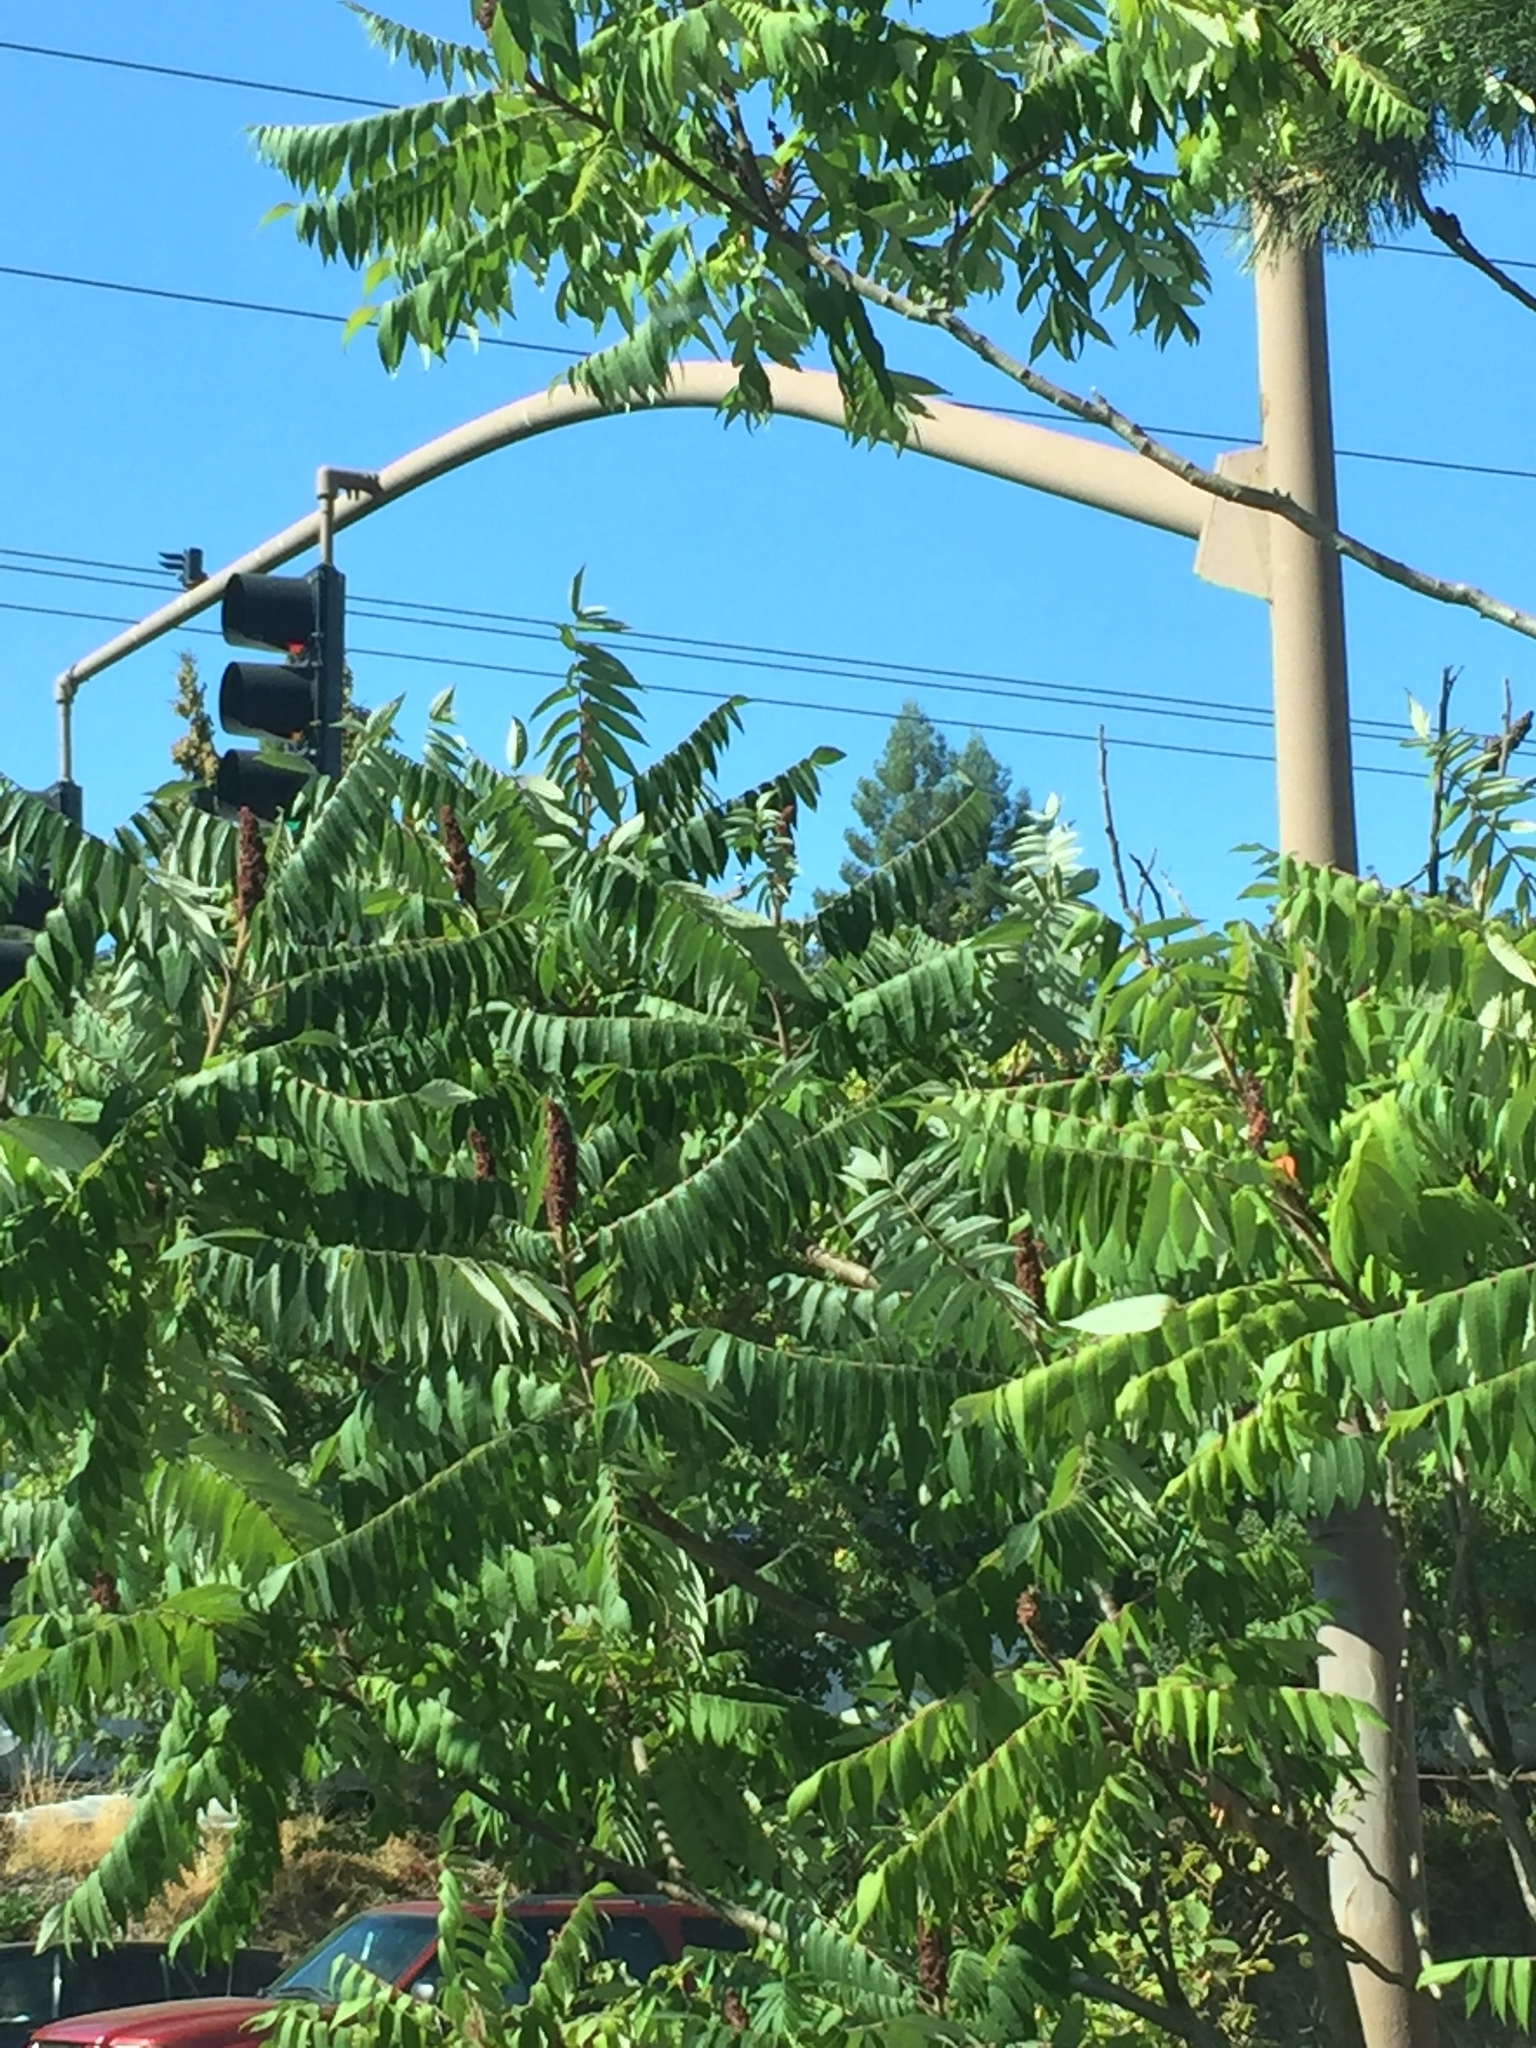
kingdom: Plantae
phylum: Tracheophyta
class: Magnoliopsida
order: Sapindales
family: Anacardiaceae
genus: Rhus
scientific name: Rhus typhina
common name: Staghorn sumac
